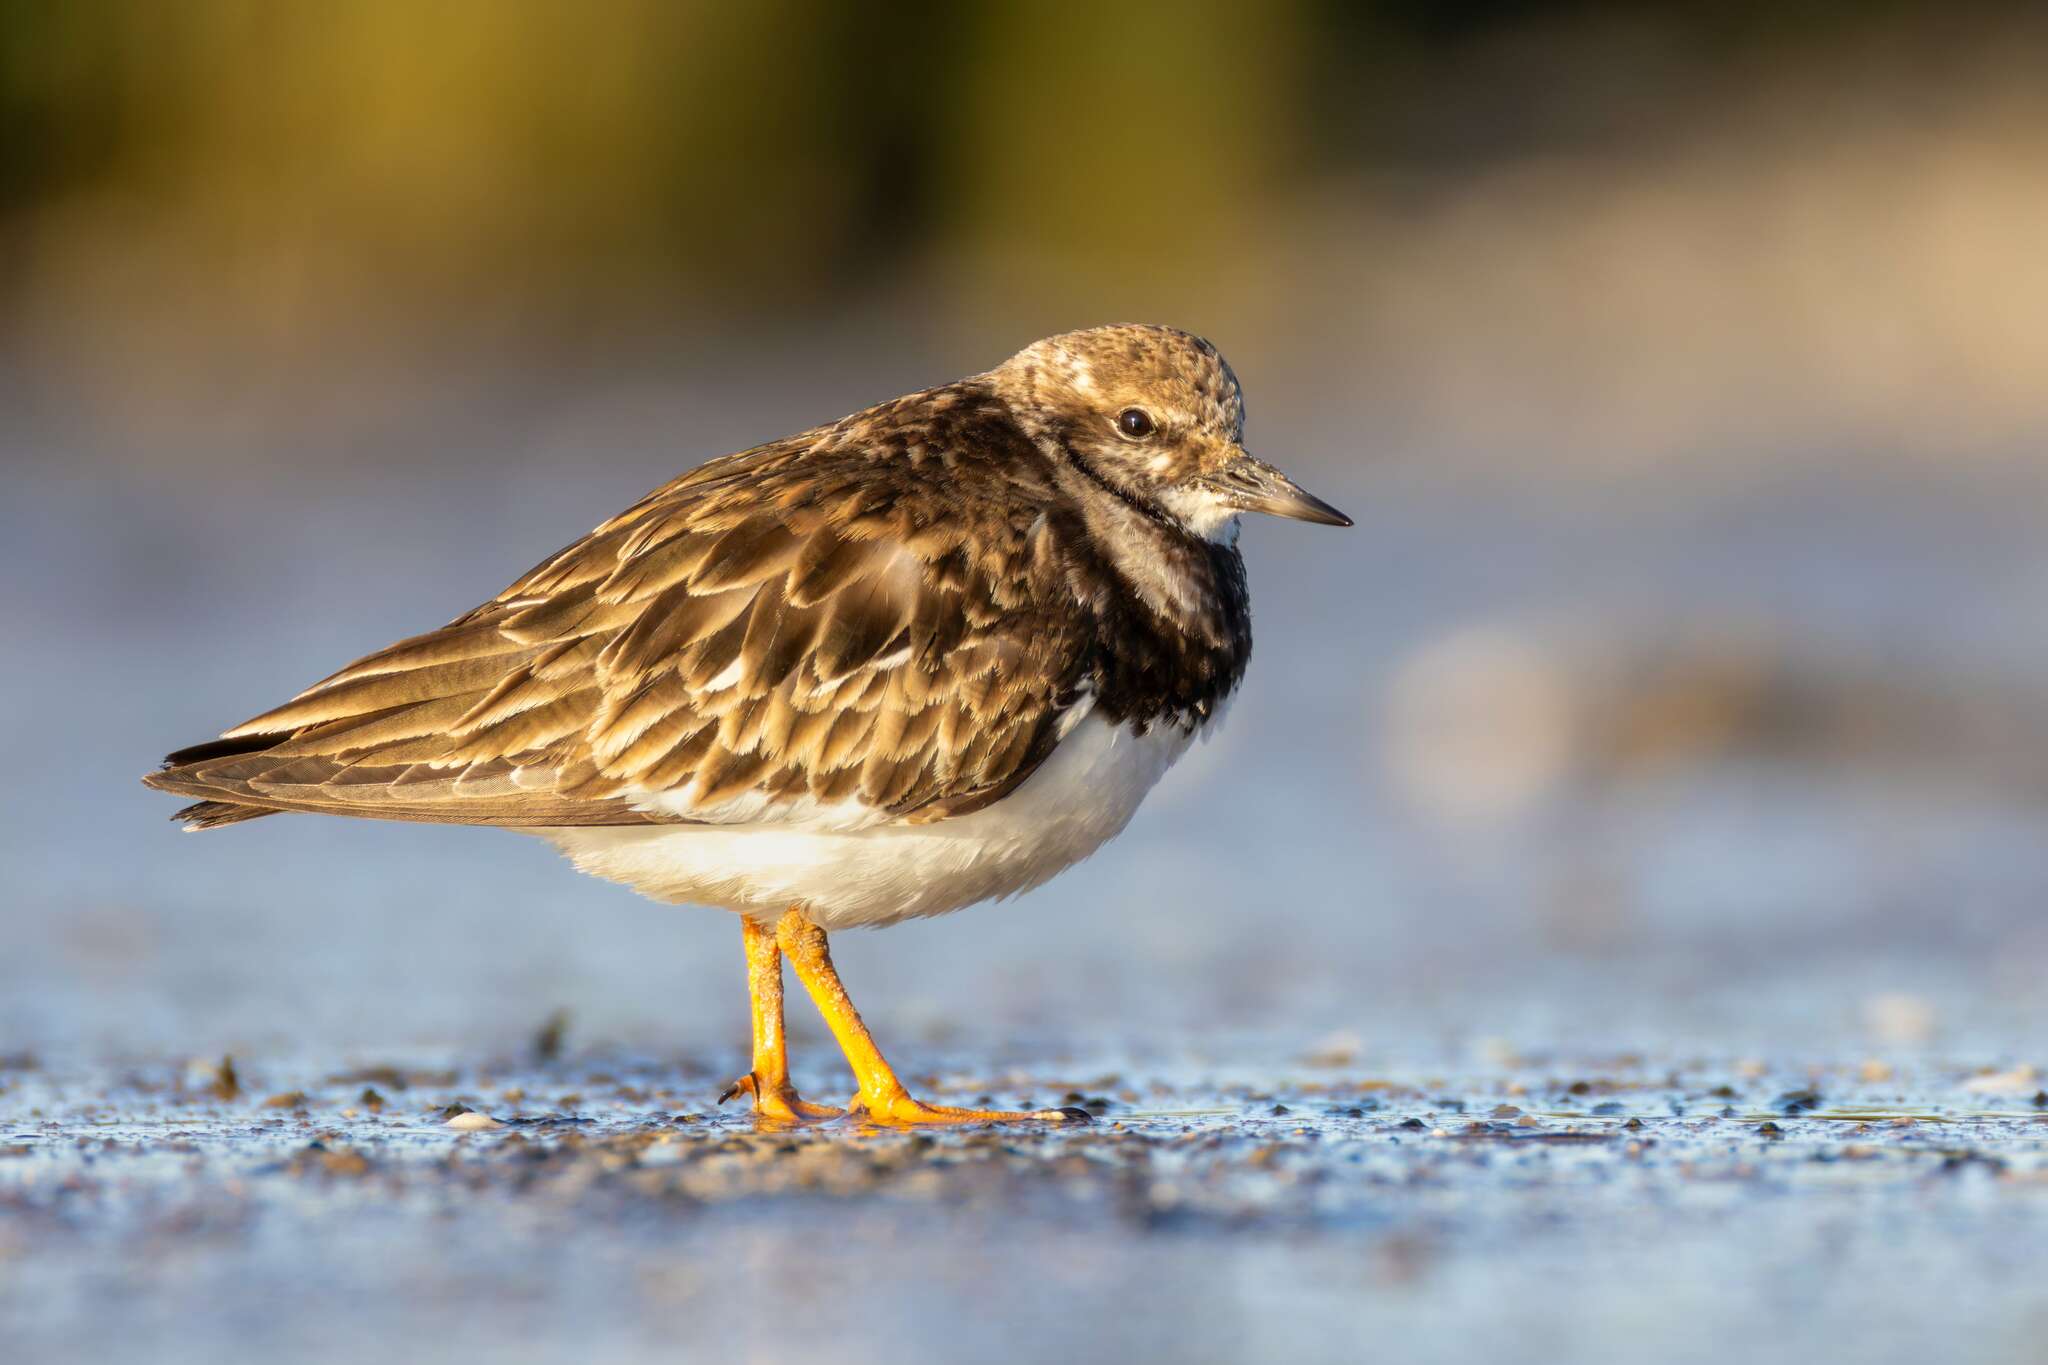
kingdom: Animalia
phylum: Chordata
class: Aves
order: Charadriiformes
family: Scolopacidae
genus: Arenaria
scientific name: Arenaria interpres
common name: Ruddy turnstone
